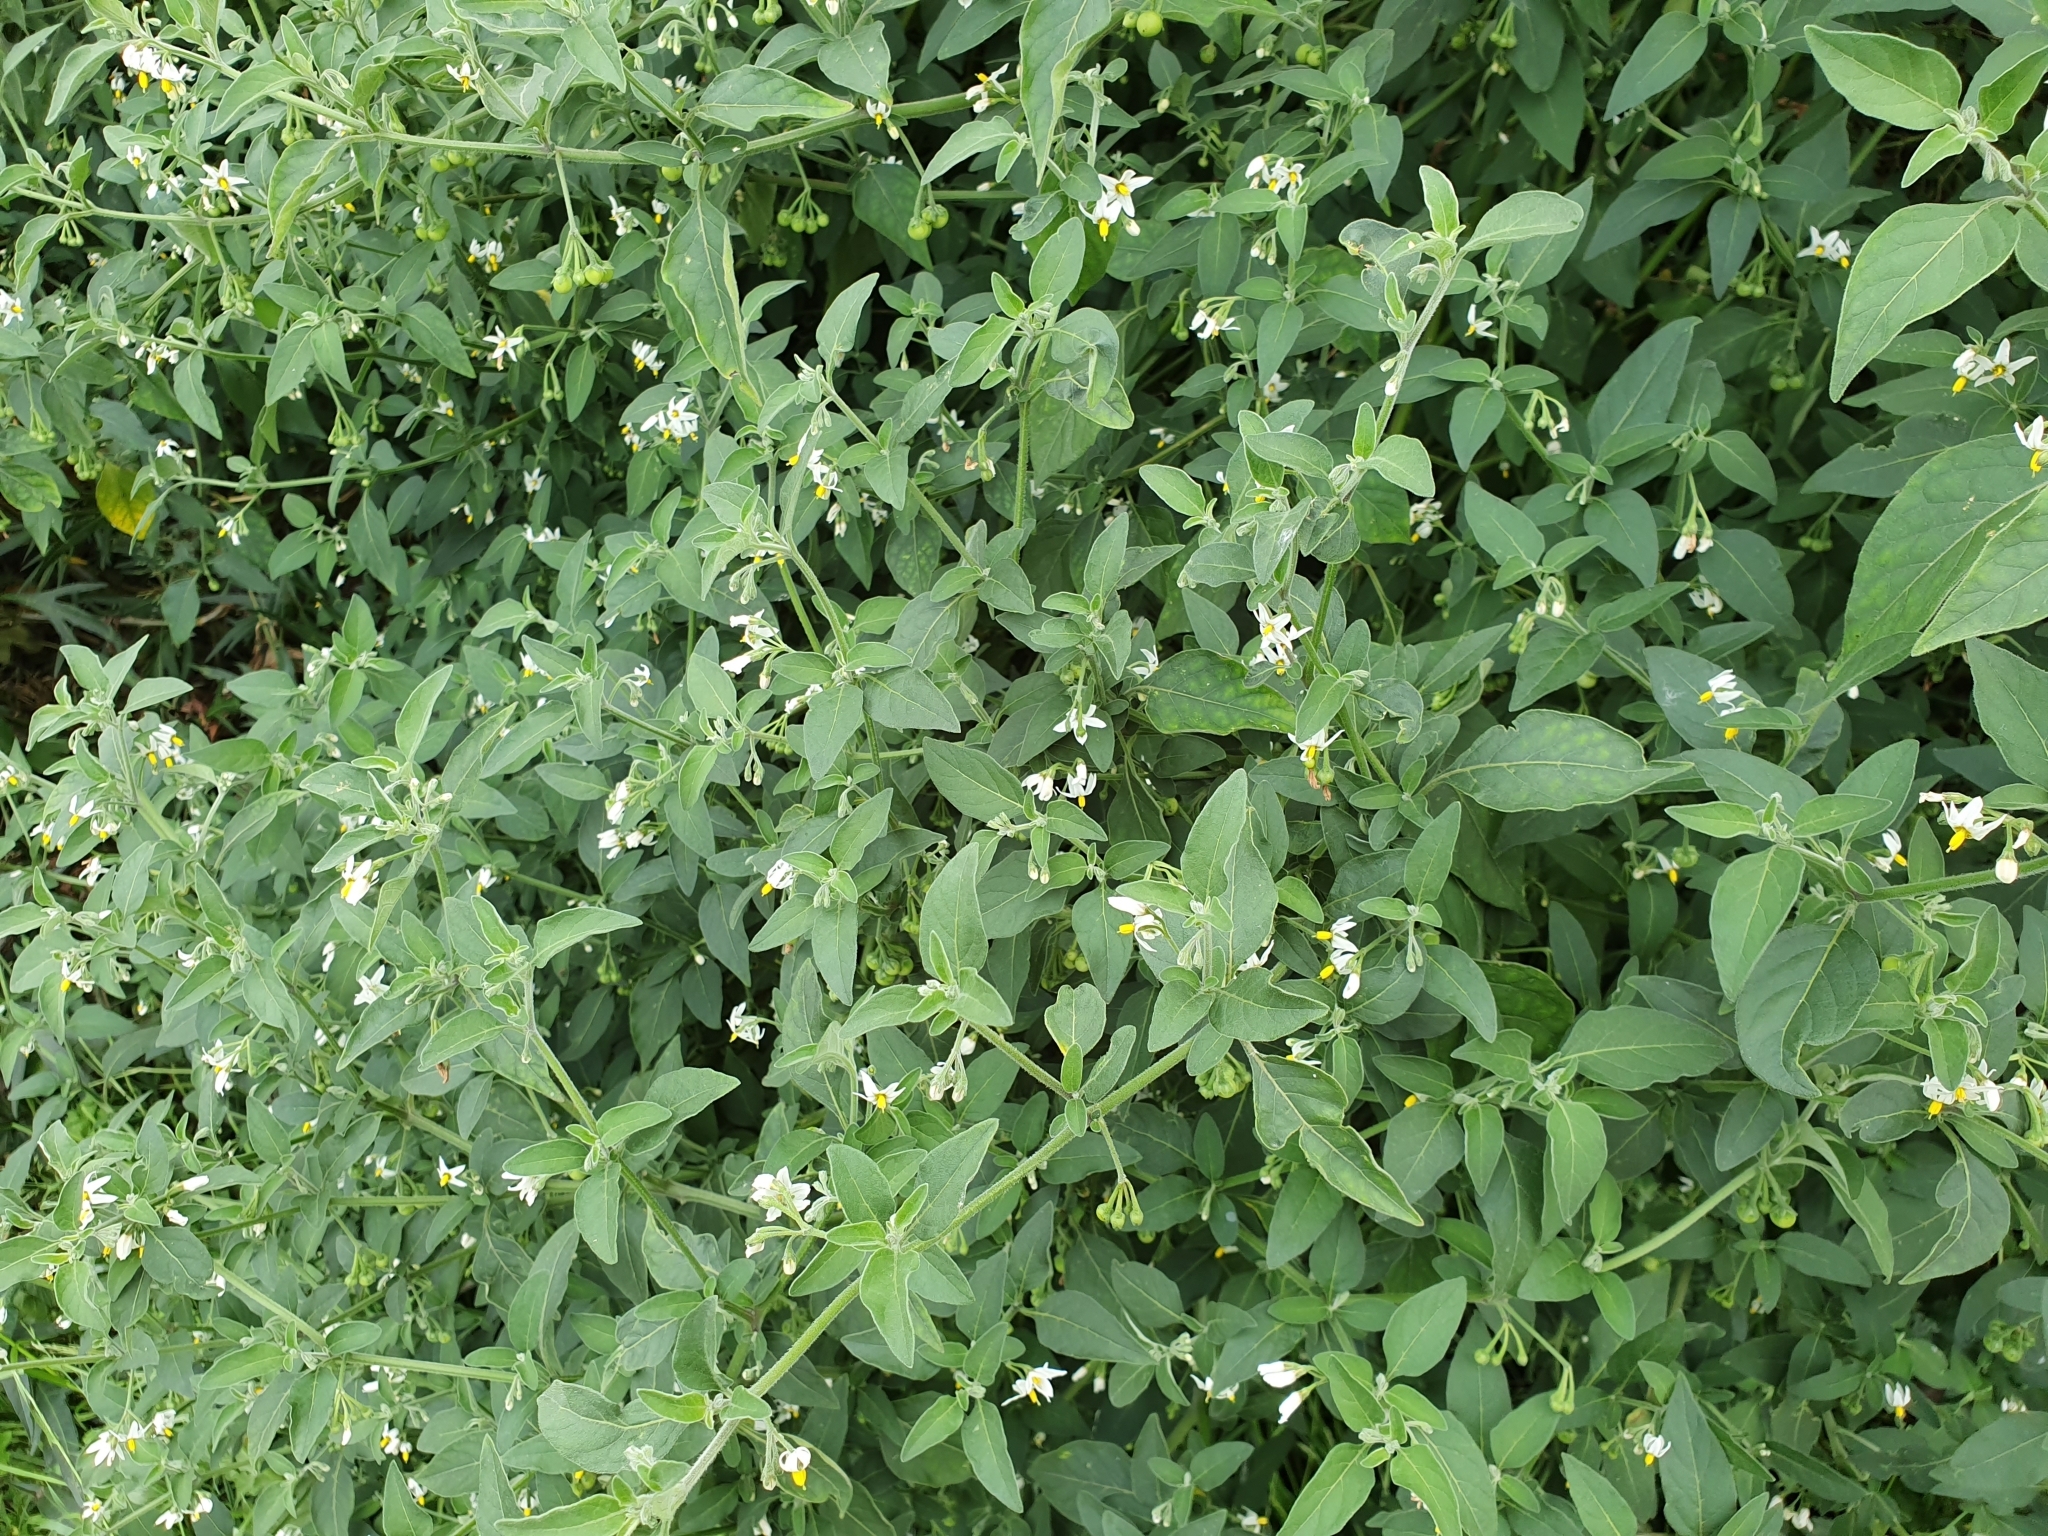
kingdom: Plantae
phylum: Tracheophyta
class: Magnoliopsida
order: Solanales
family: Solanaceae
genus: Solanum
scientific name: Solanum chenopodioides
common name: Tall nightshade
